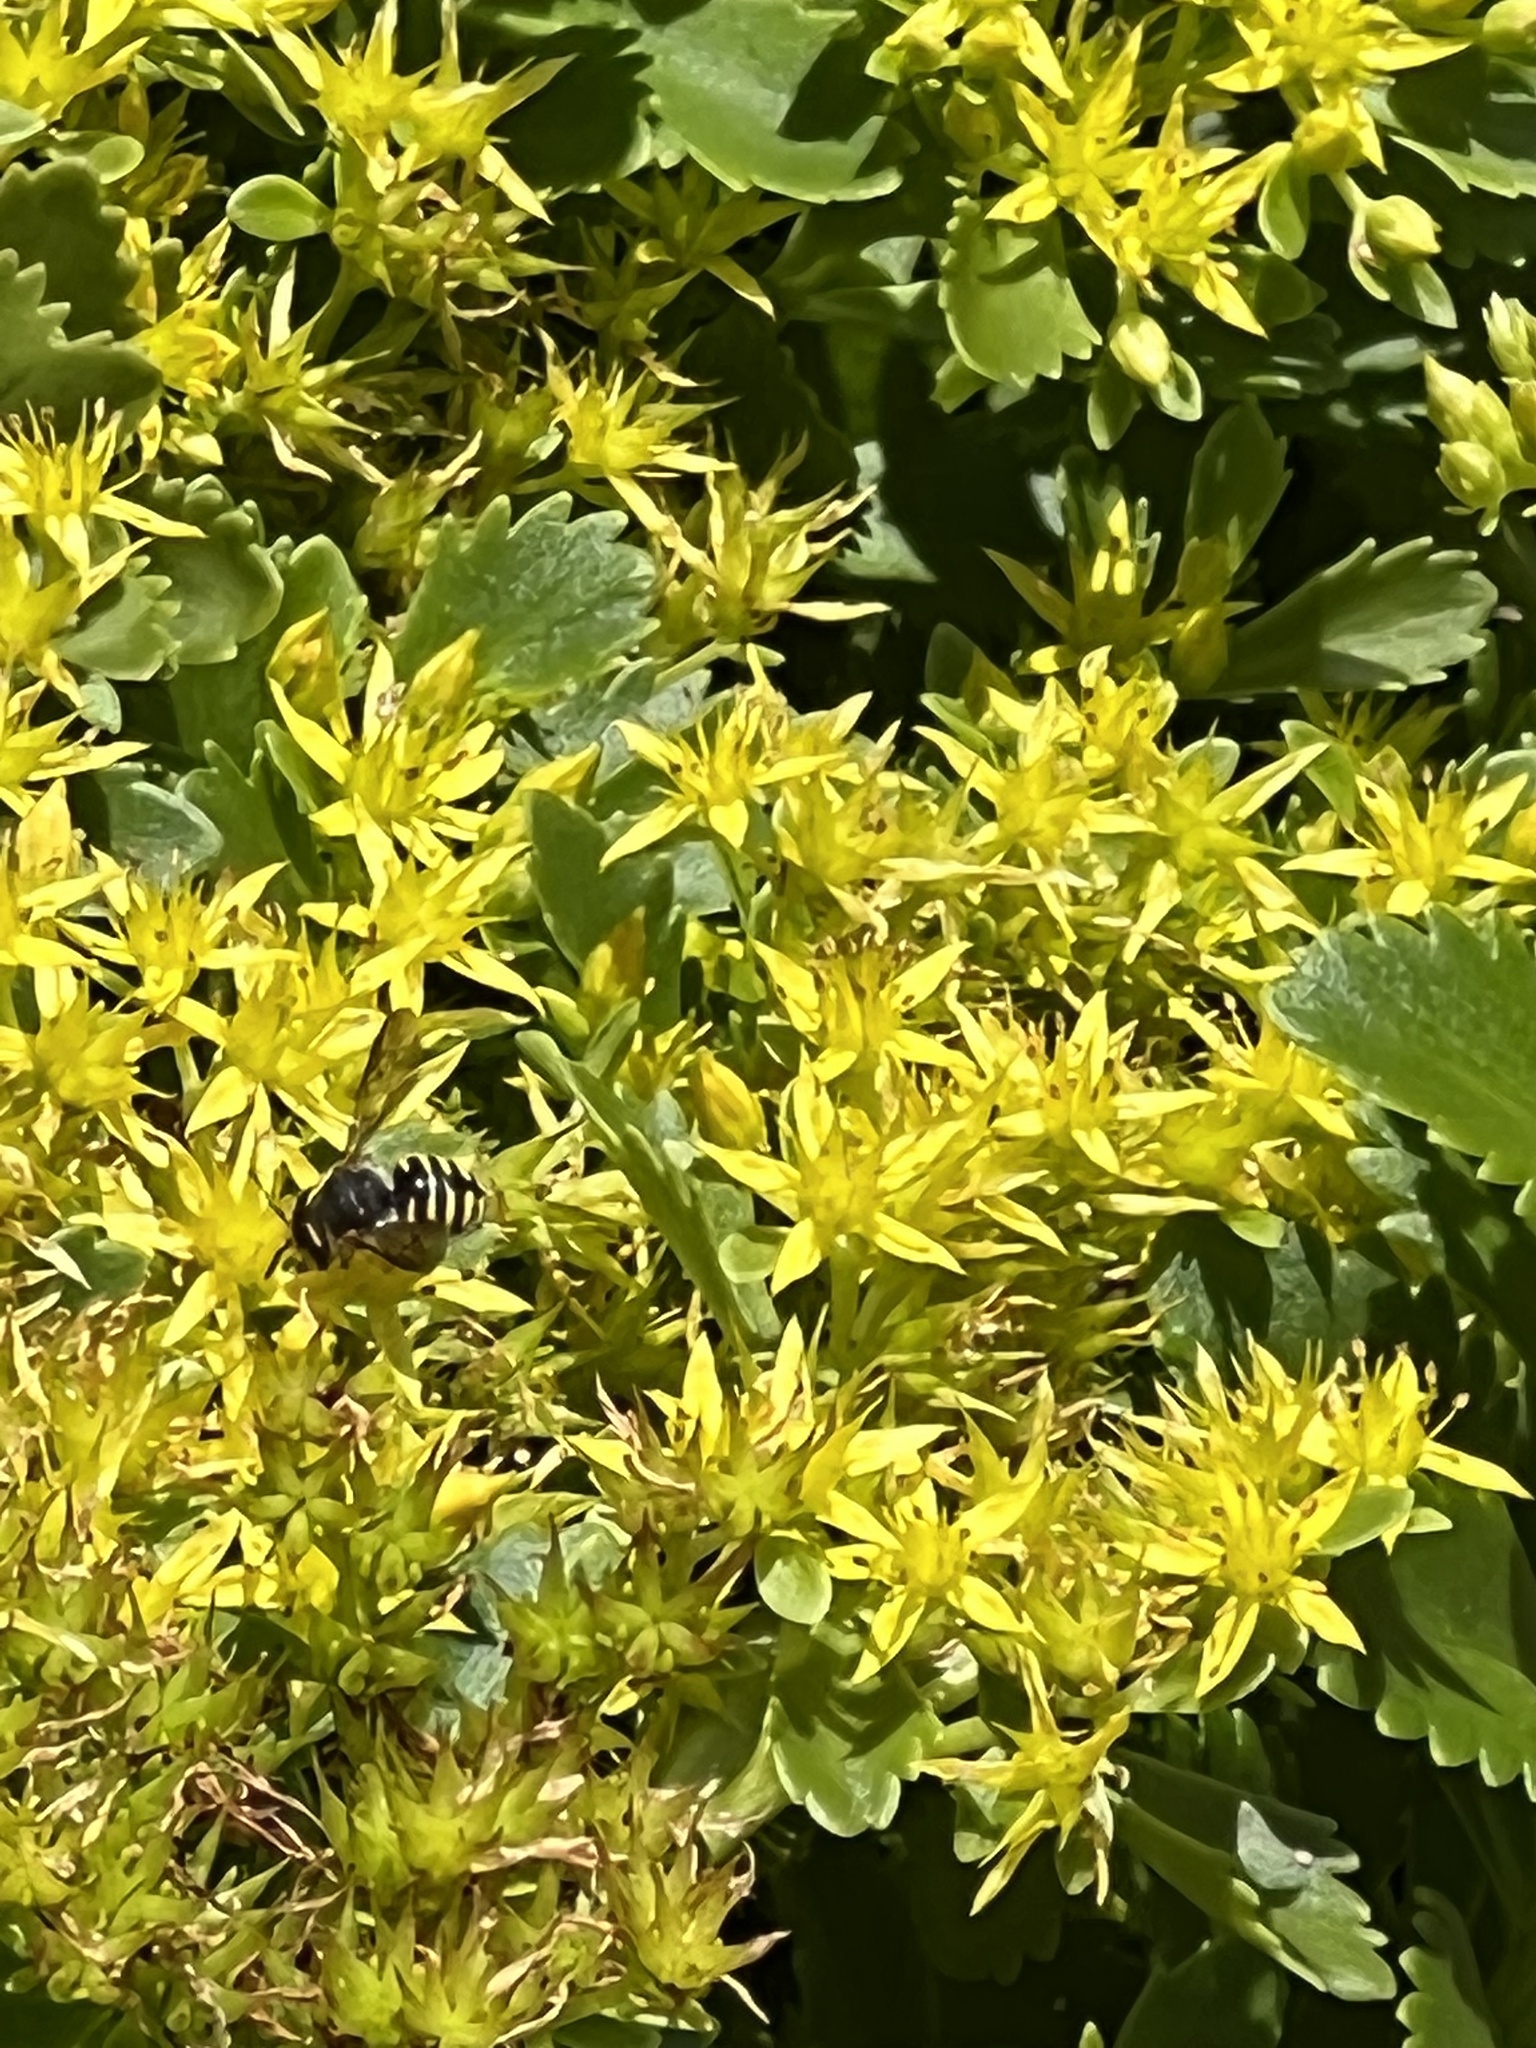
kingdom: Animalia
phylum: Arthropoda
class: Insecta
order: Hymenoptera
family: Megachilidae
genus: Anthidium
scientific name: Anthidium oblongatum
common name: Oblong wool carder bee
